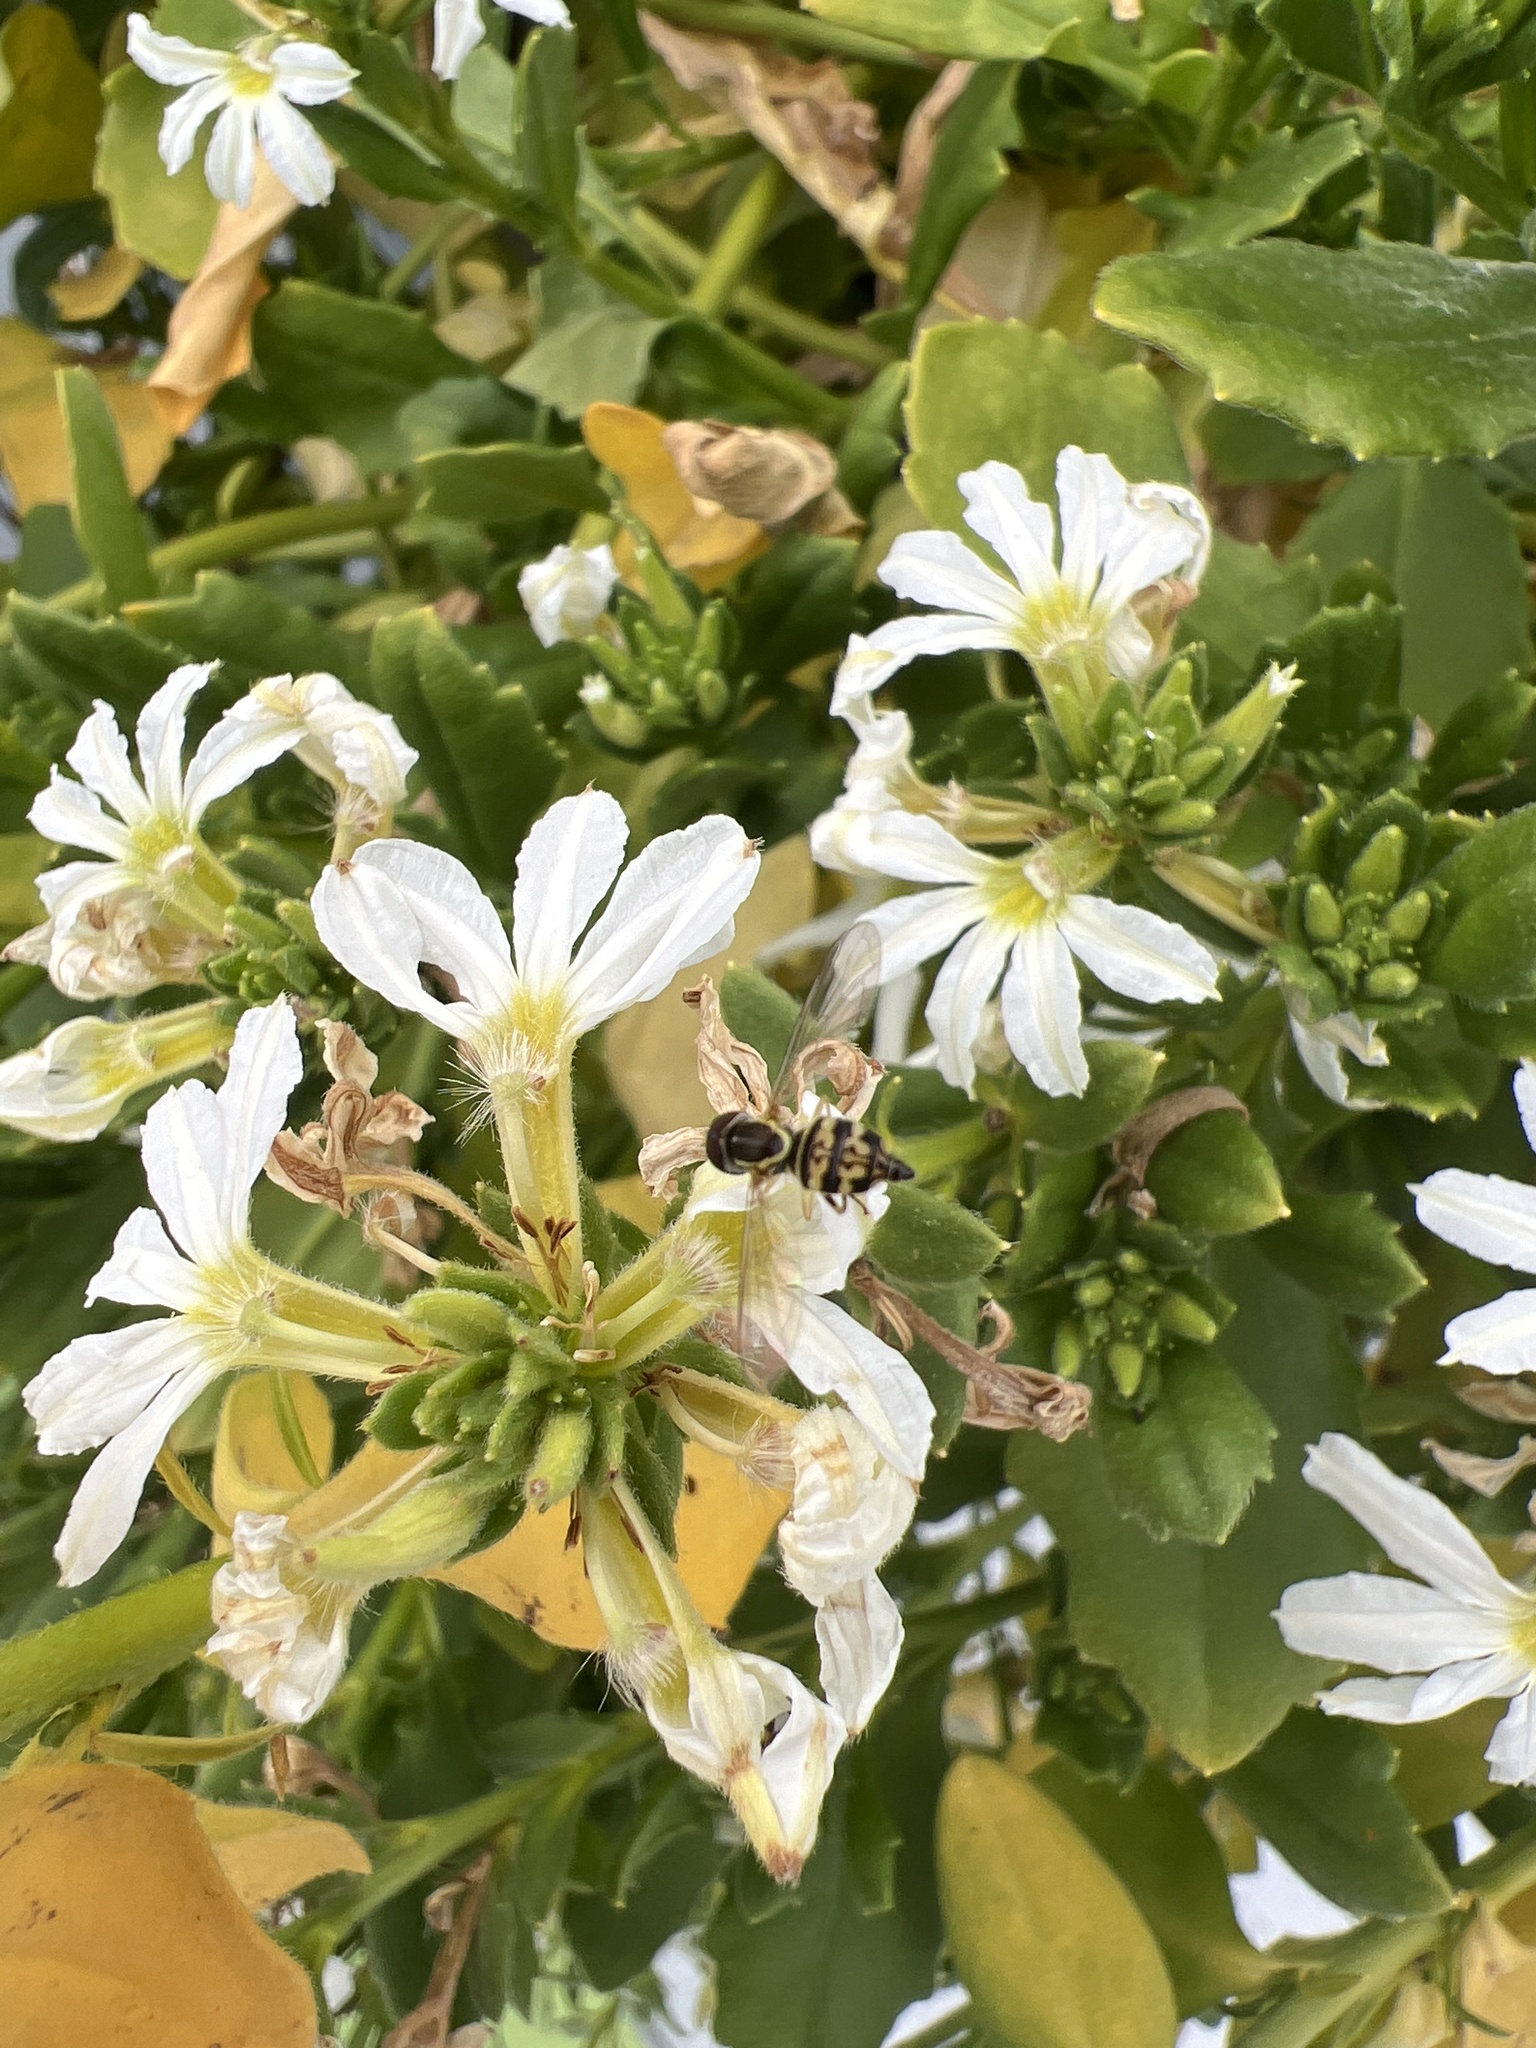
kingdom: Animalia
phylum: Arthropoda
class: Insecta
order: Diptera
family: Syrphidae
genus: Toxomerus
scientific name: Toxomerus geminatus
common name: Eastern calligrapher
